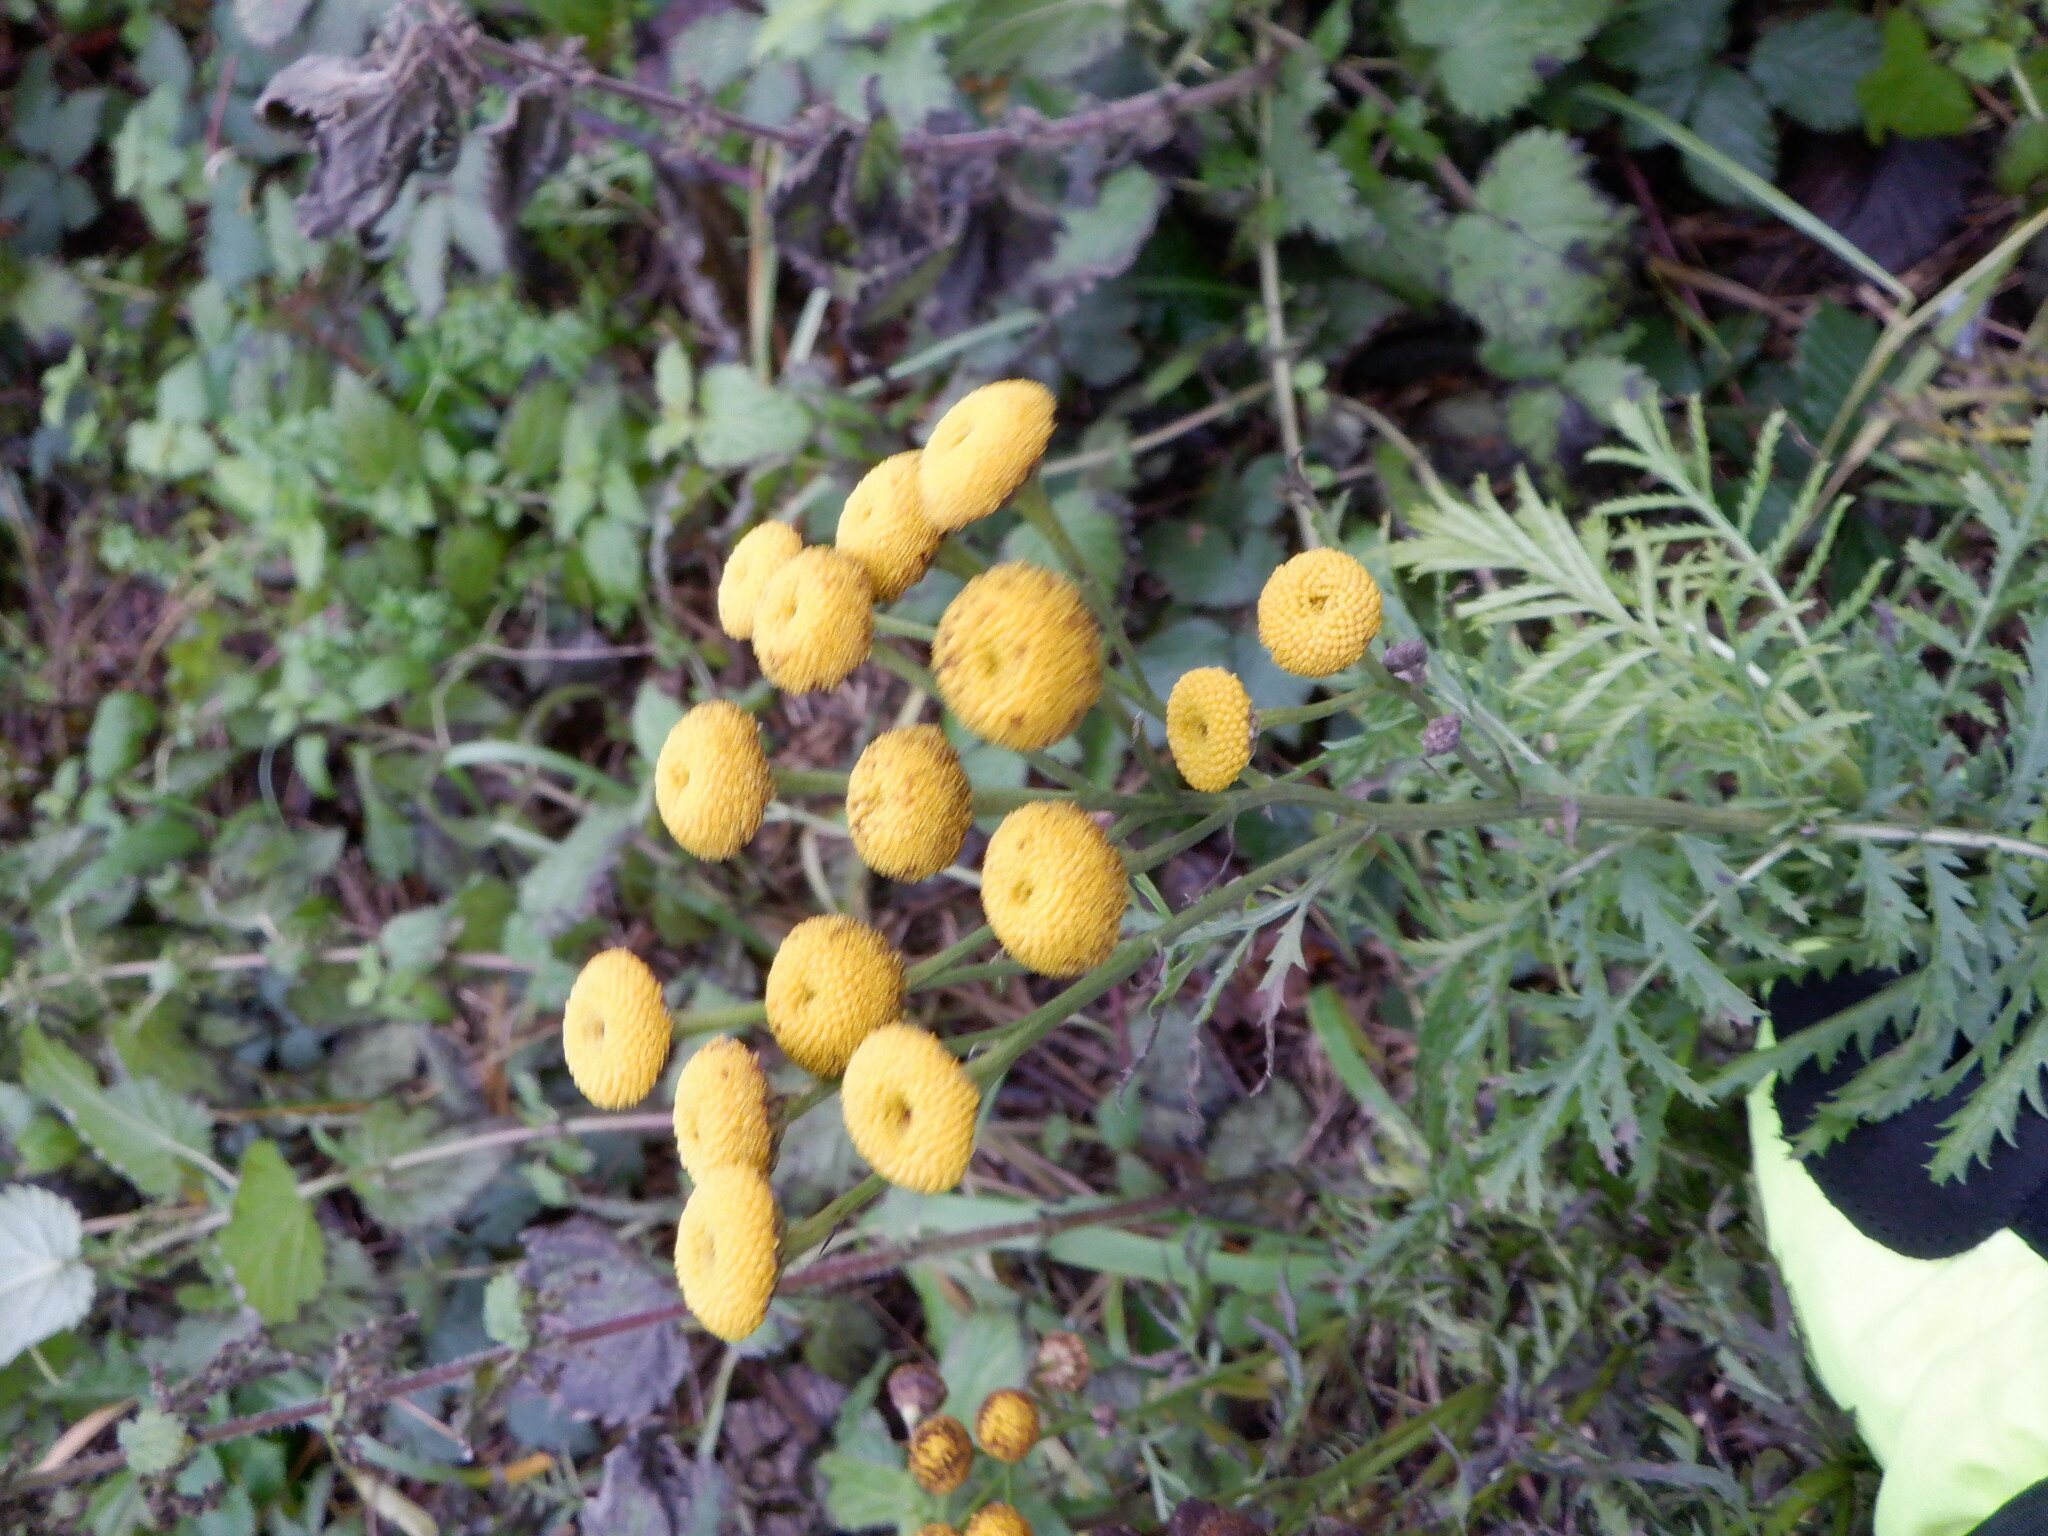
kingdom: Plantae
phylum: Tracheophyta
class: Magnoliopsida
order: Asterales
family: Asteraceae
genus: Tanacetum
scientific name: Tanacetum vulgare
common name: Common tansy
